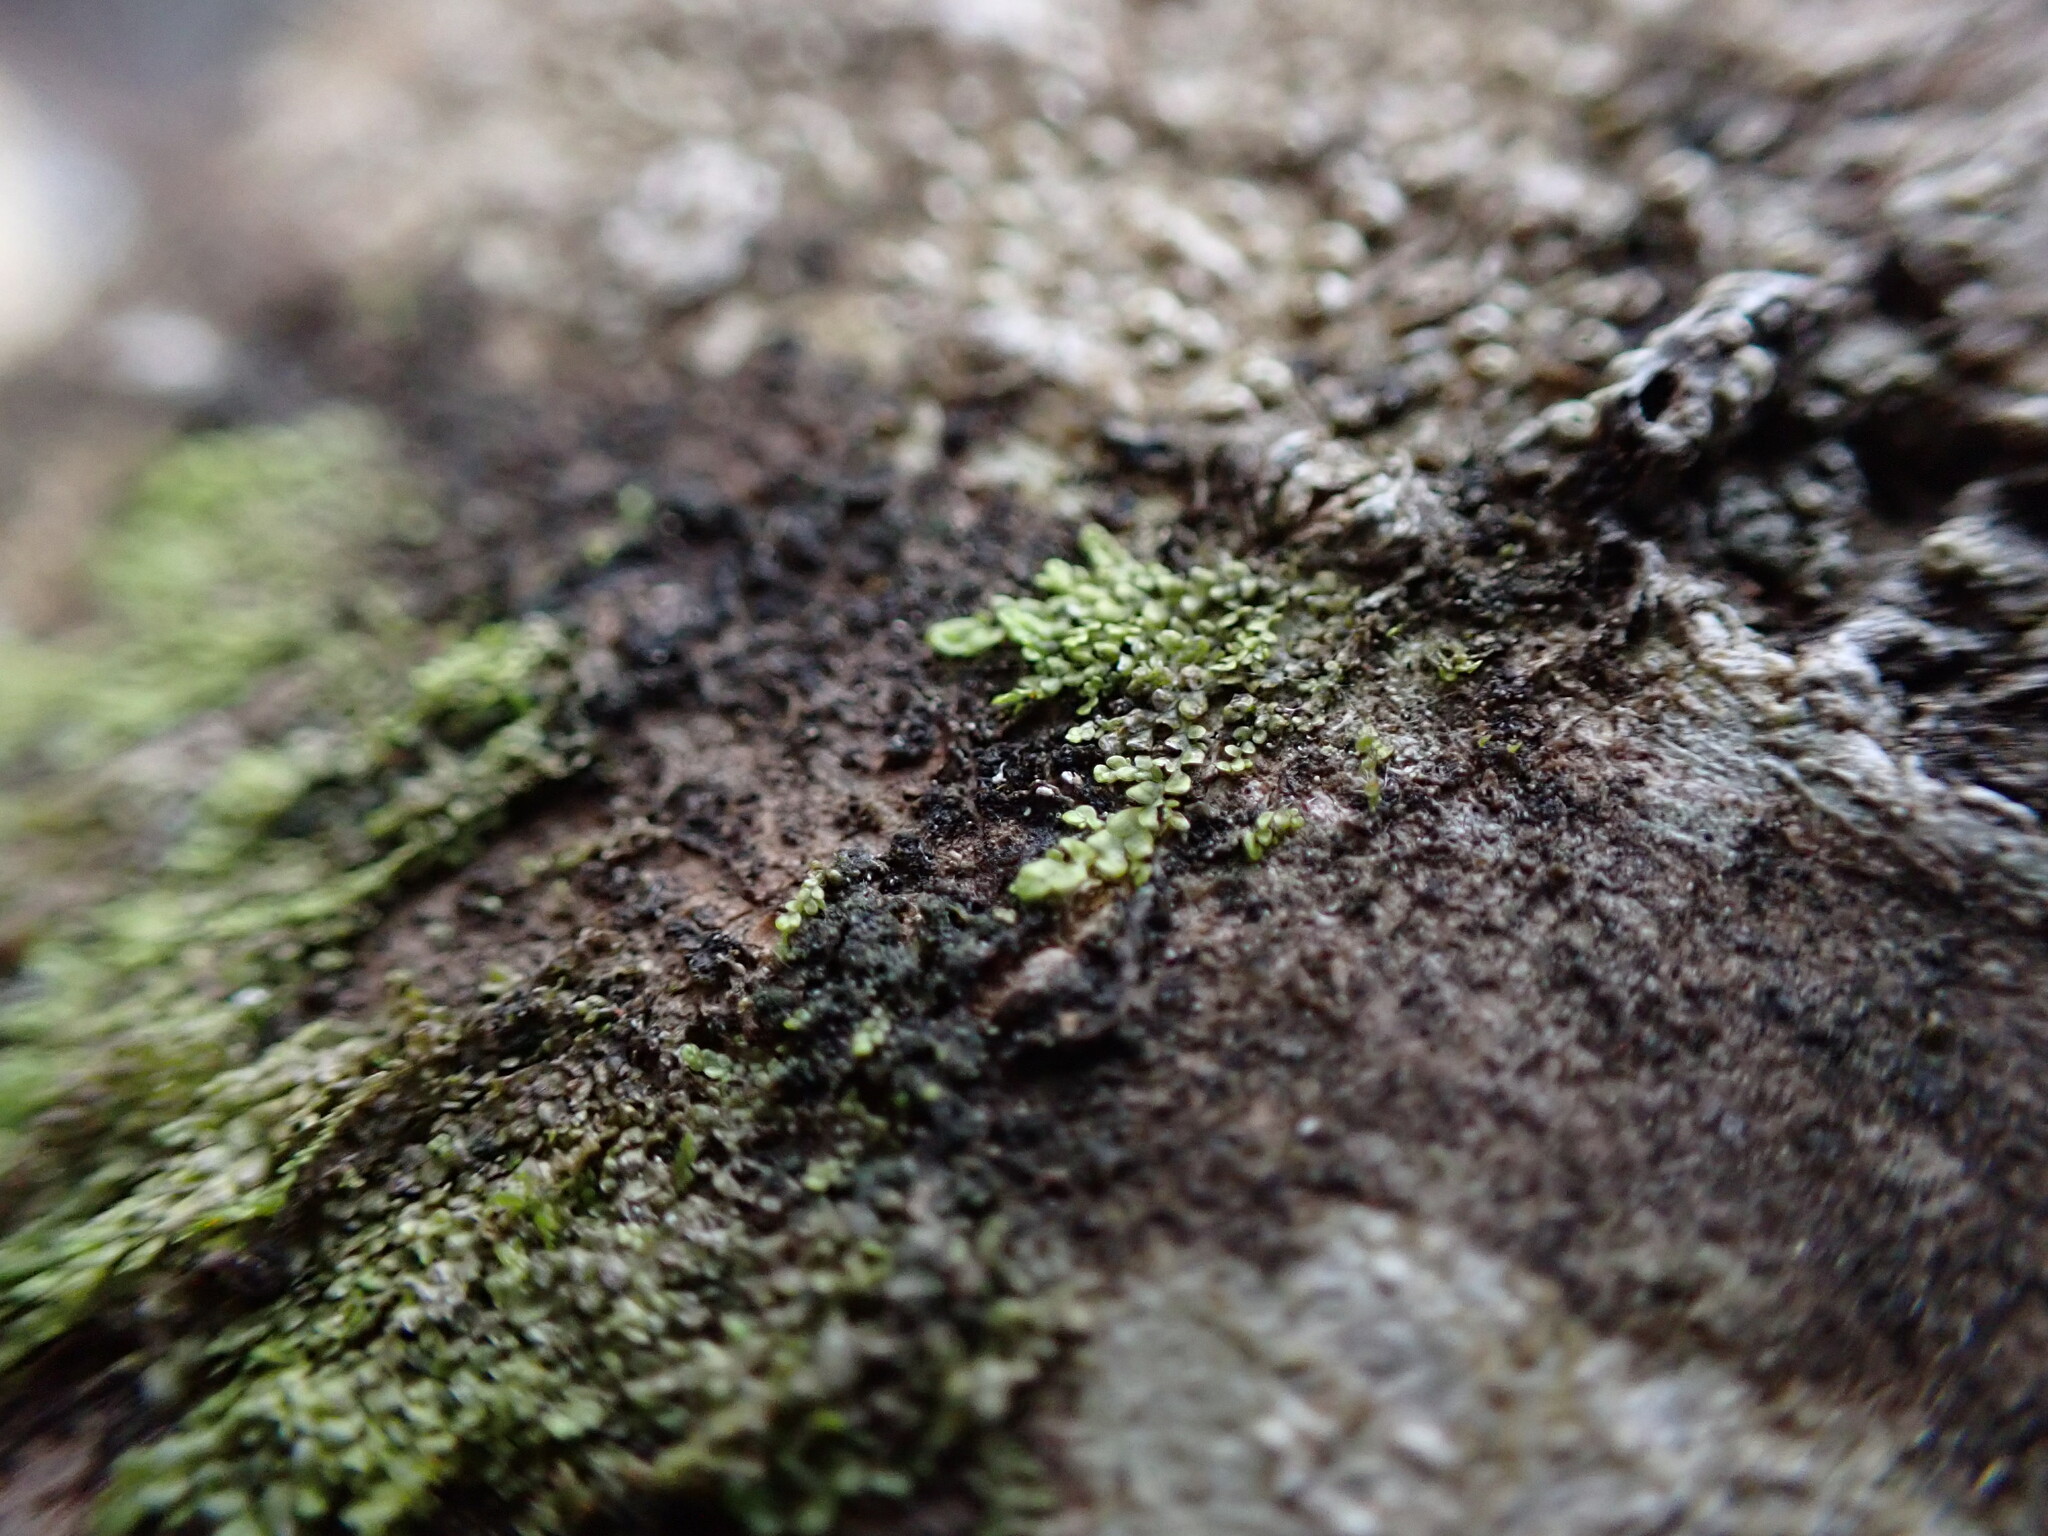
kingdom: Plantae
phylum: Marchantiophyta
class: Jungermanniopsida
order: Porellales
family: Radulaceae
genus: Radula
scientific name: Radula bolanderi
